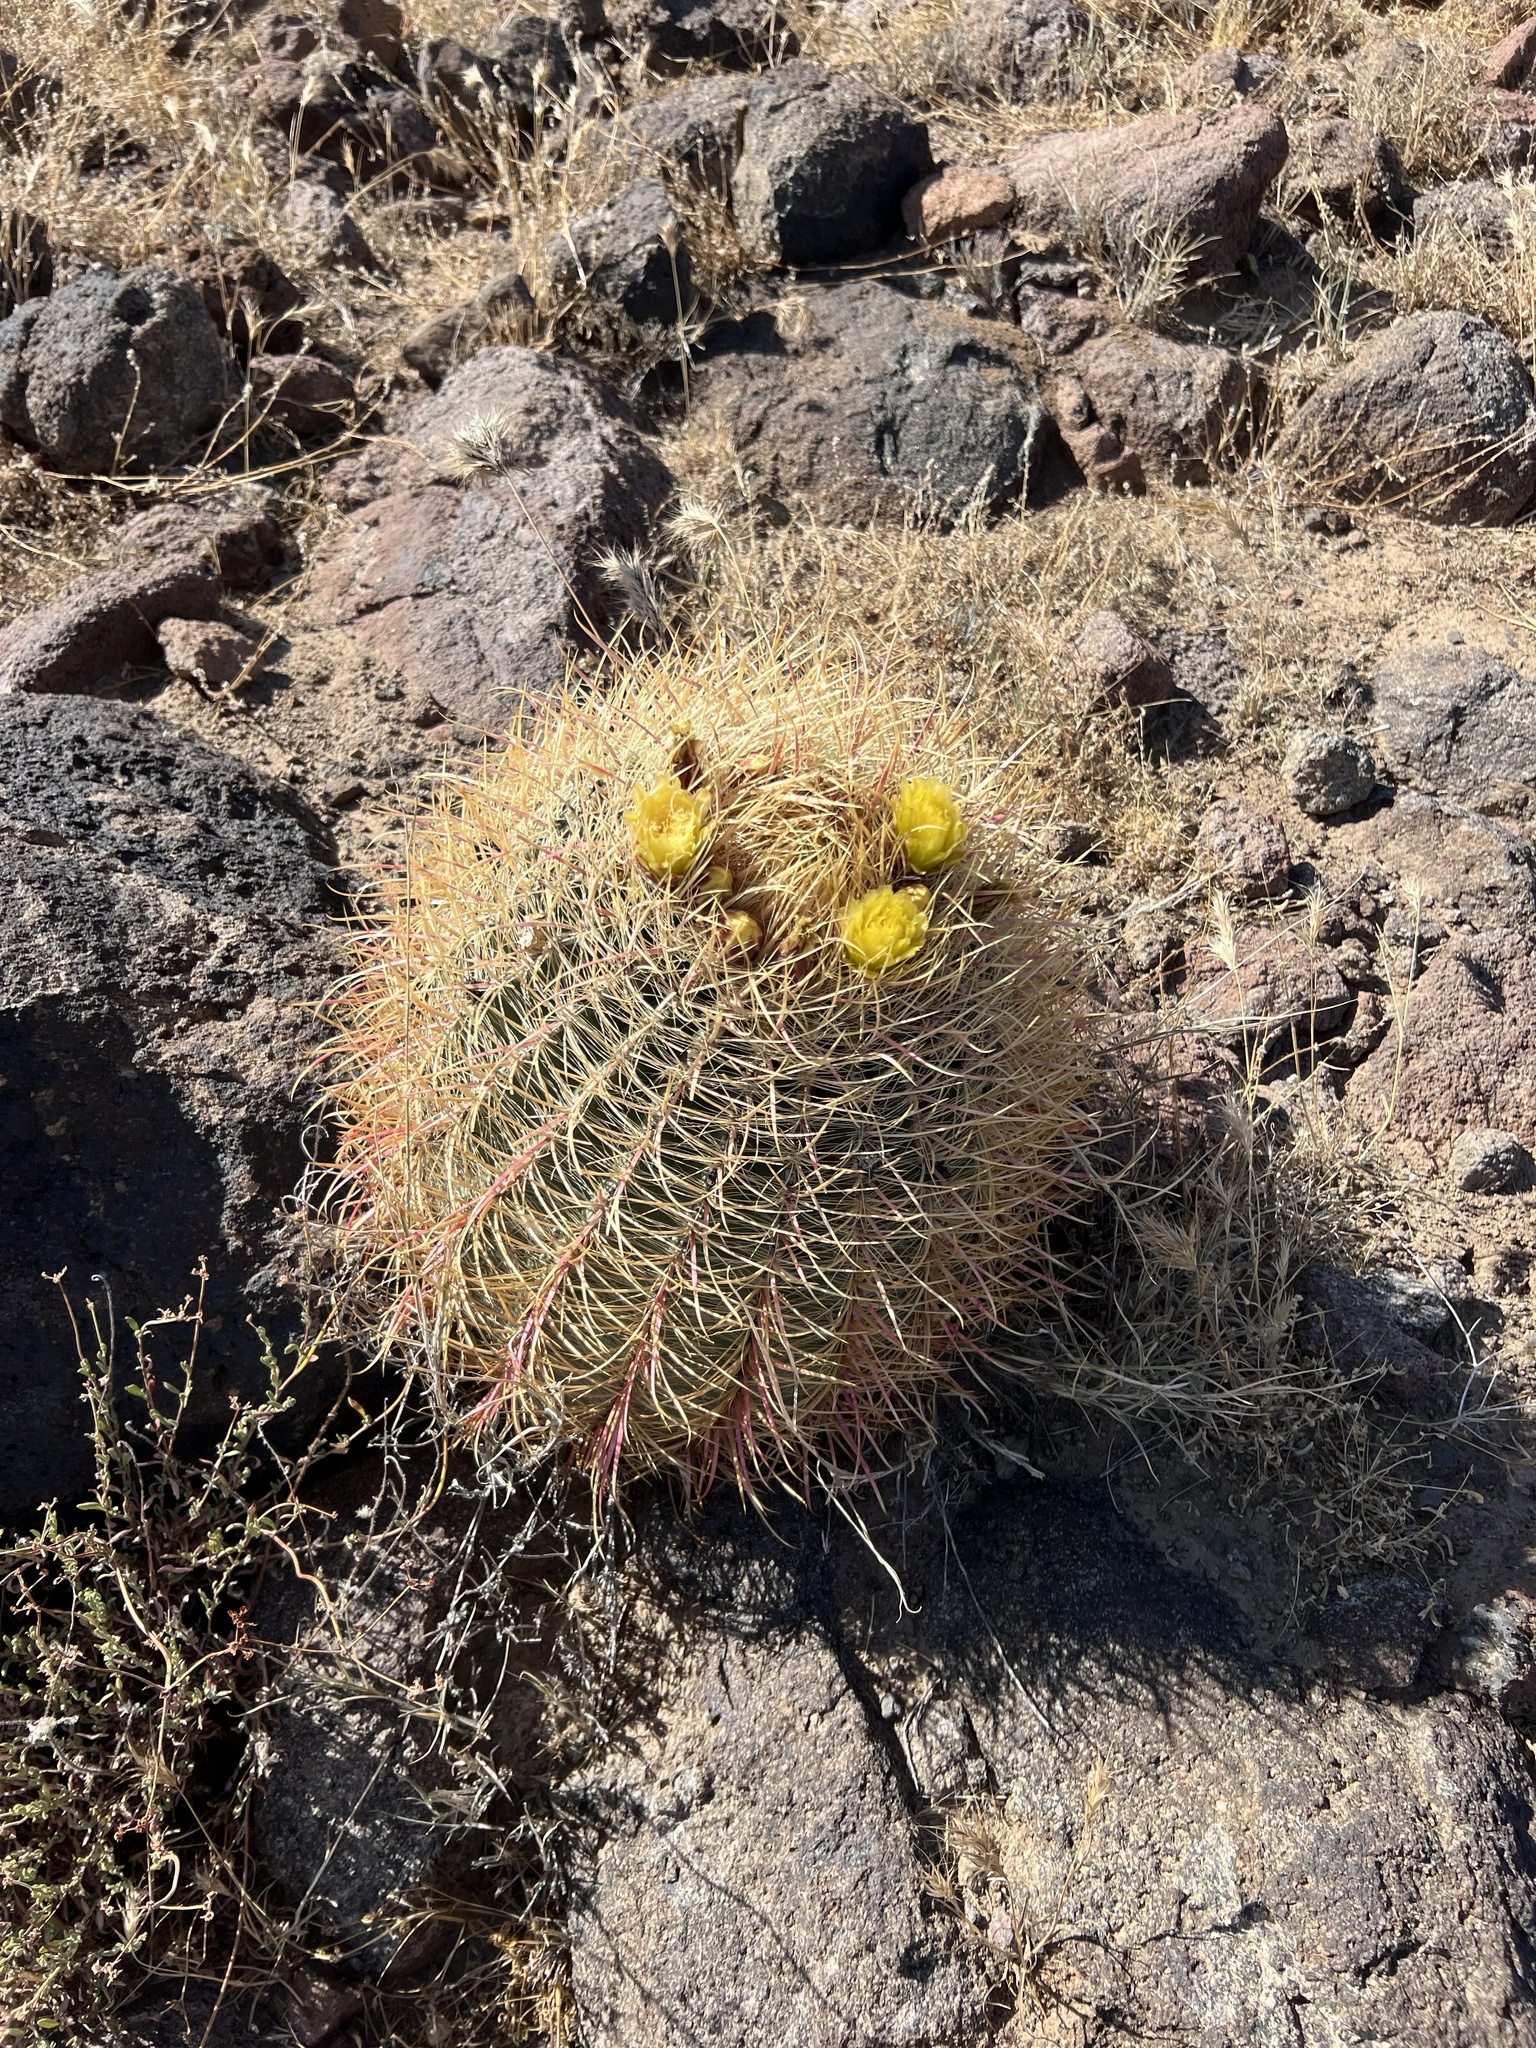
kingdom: Plantae
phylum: Tracheophyta
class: Magnoliopsida
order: Caryophyllales
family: Cactaceae
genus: Ferocactus
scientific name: Ferocactus cylindraceus
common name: California barrel cactus
